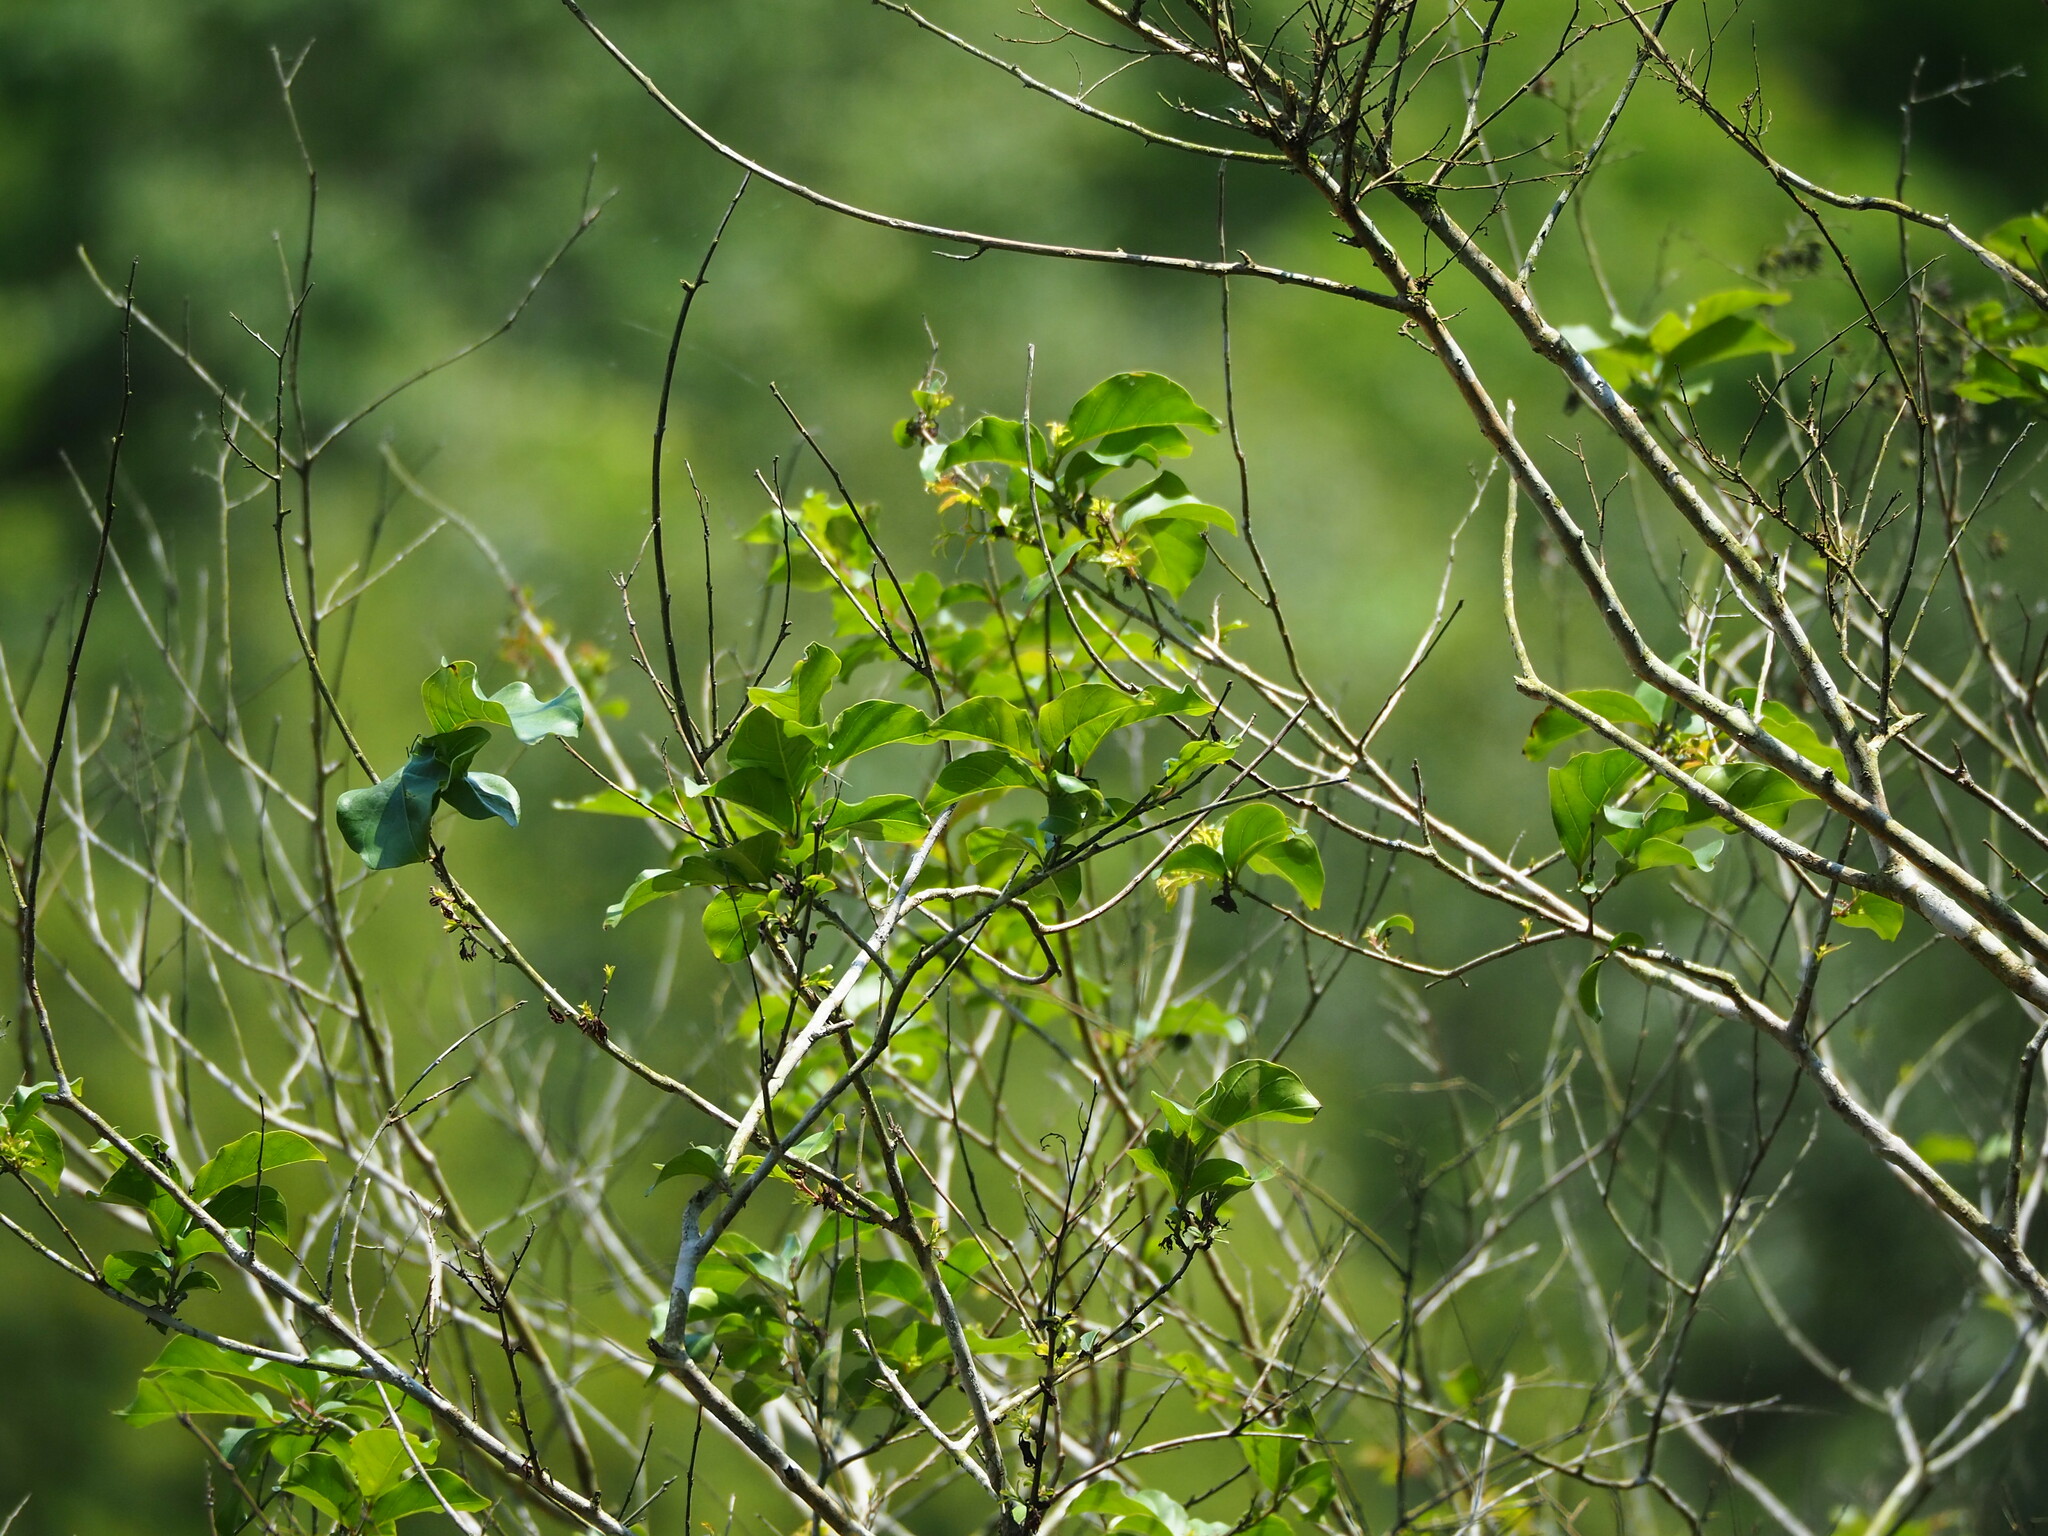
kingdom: Plantae
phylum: Tracheophyta
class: Magnoliopsida
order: Myrtales
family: Lythraceae
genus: Lagerstroemia
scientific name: Lagerstroemia subcostata
